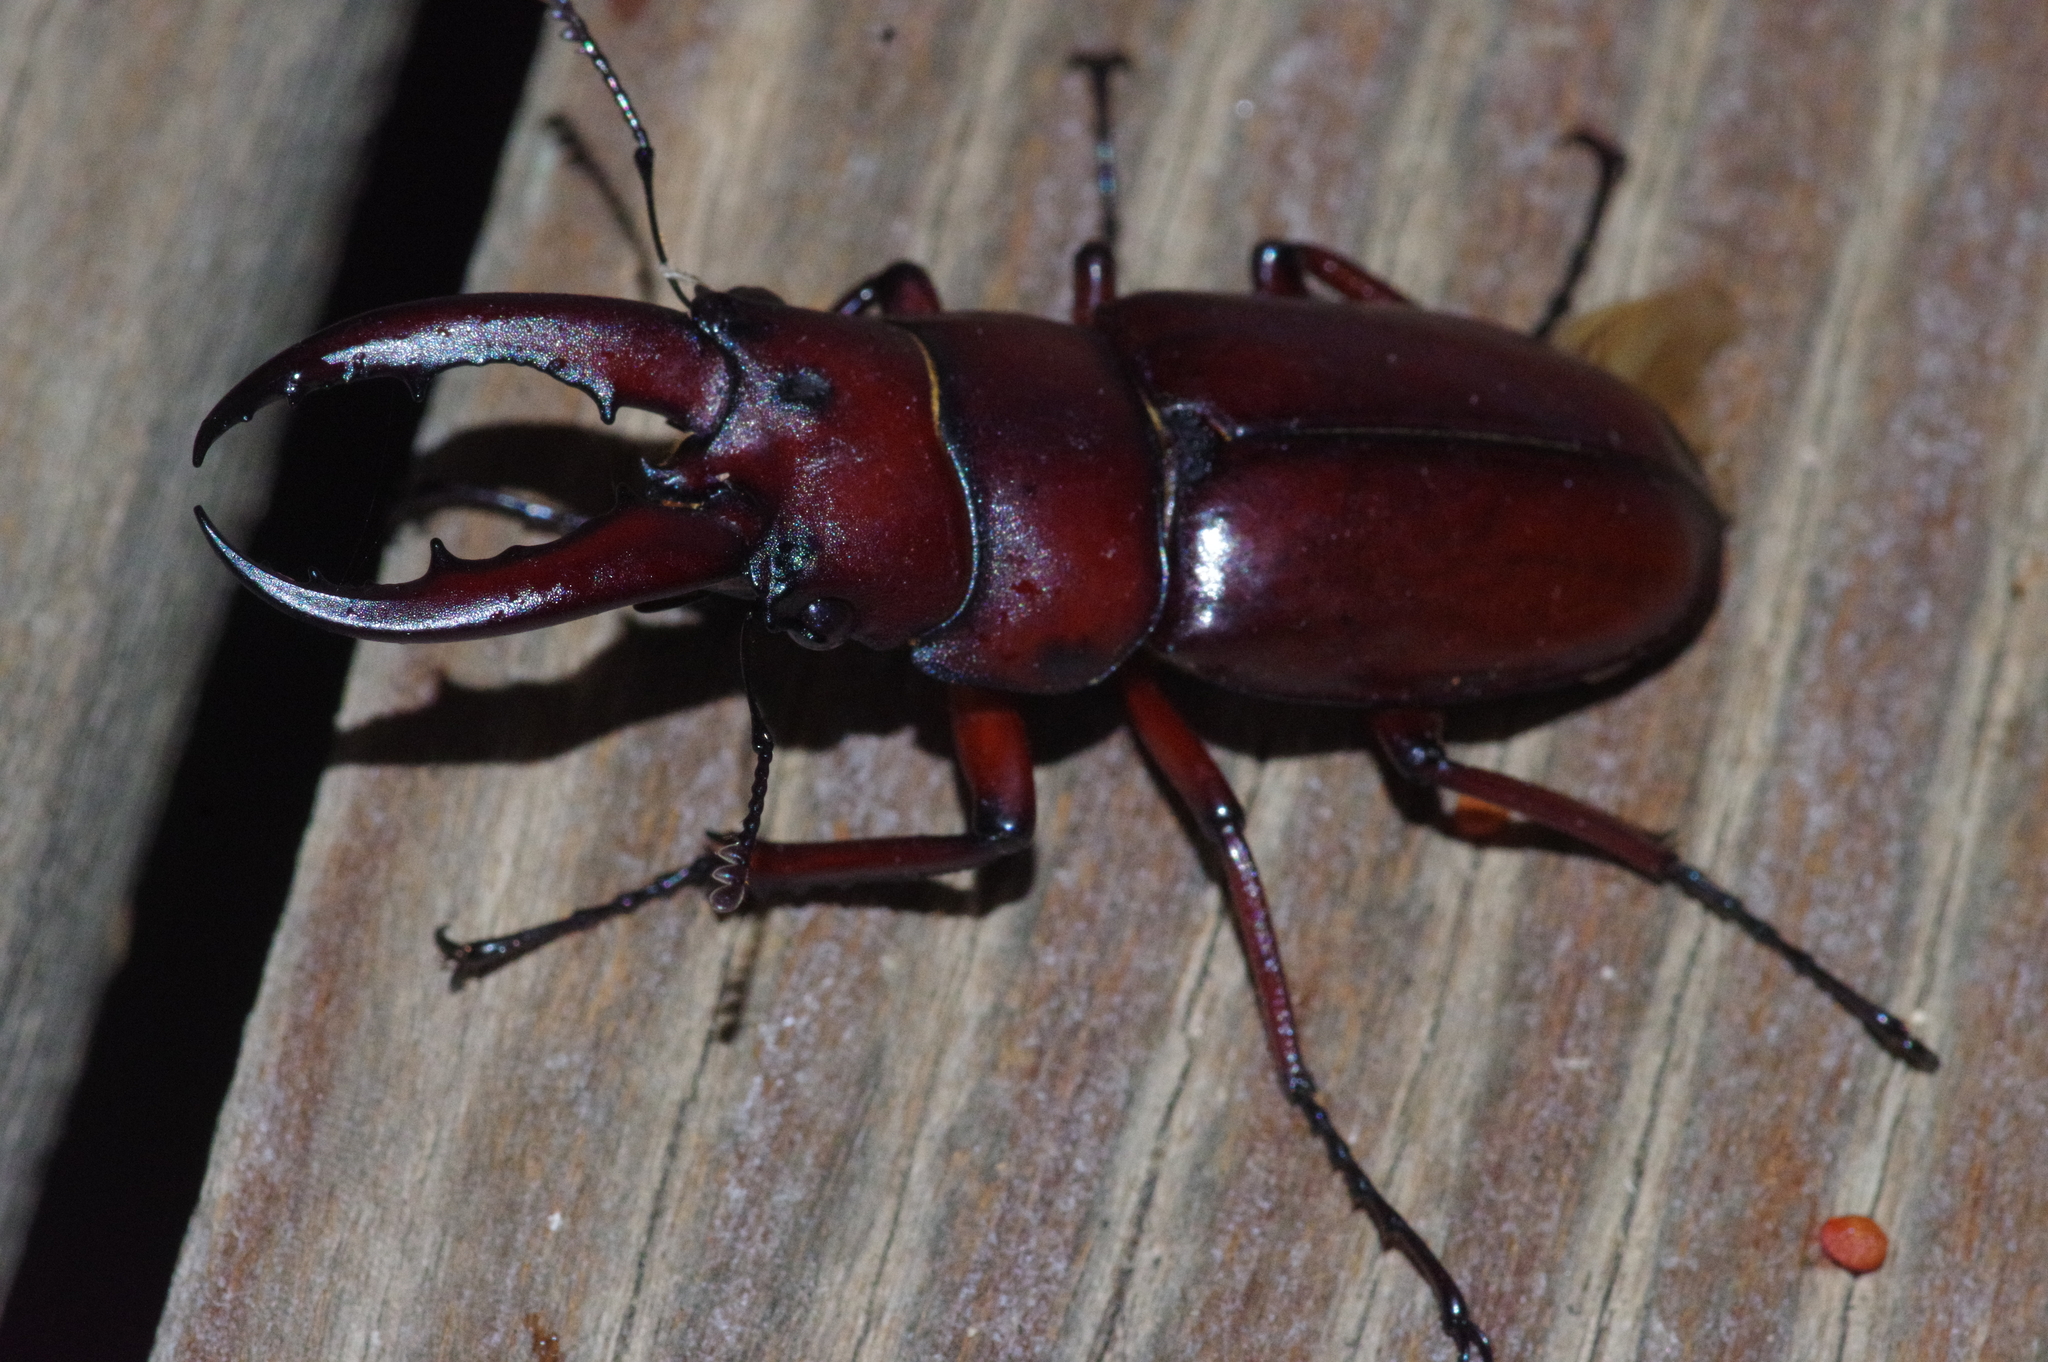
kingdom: Animalia
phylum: Arthropoda
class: Insecta
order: Coleoptera
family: Lucanidae
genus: Prosopocoilus
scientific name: Prosopocoilus dissimilis
